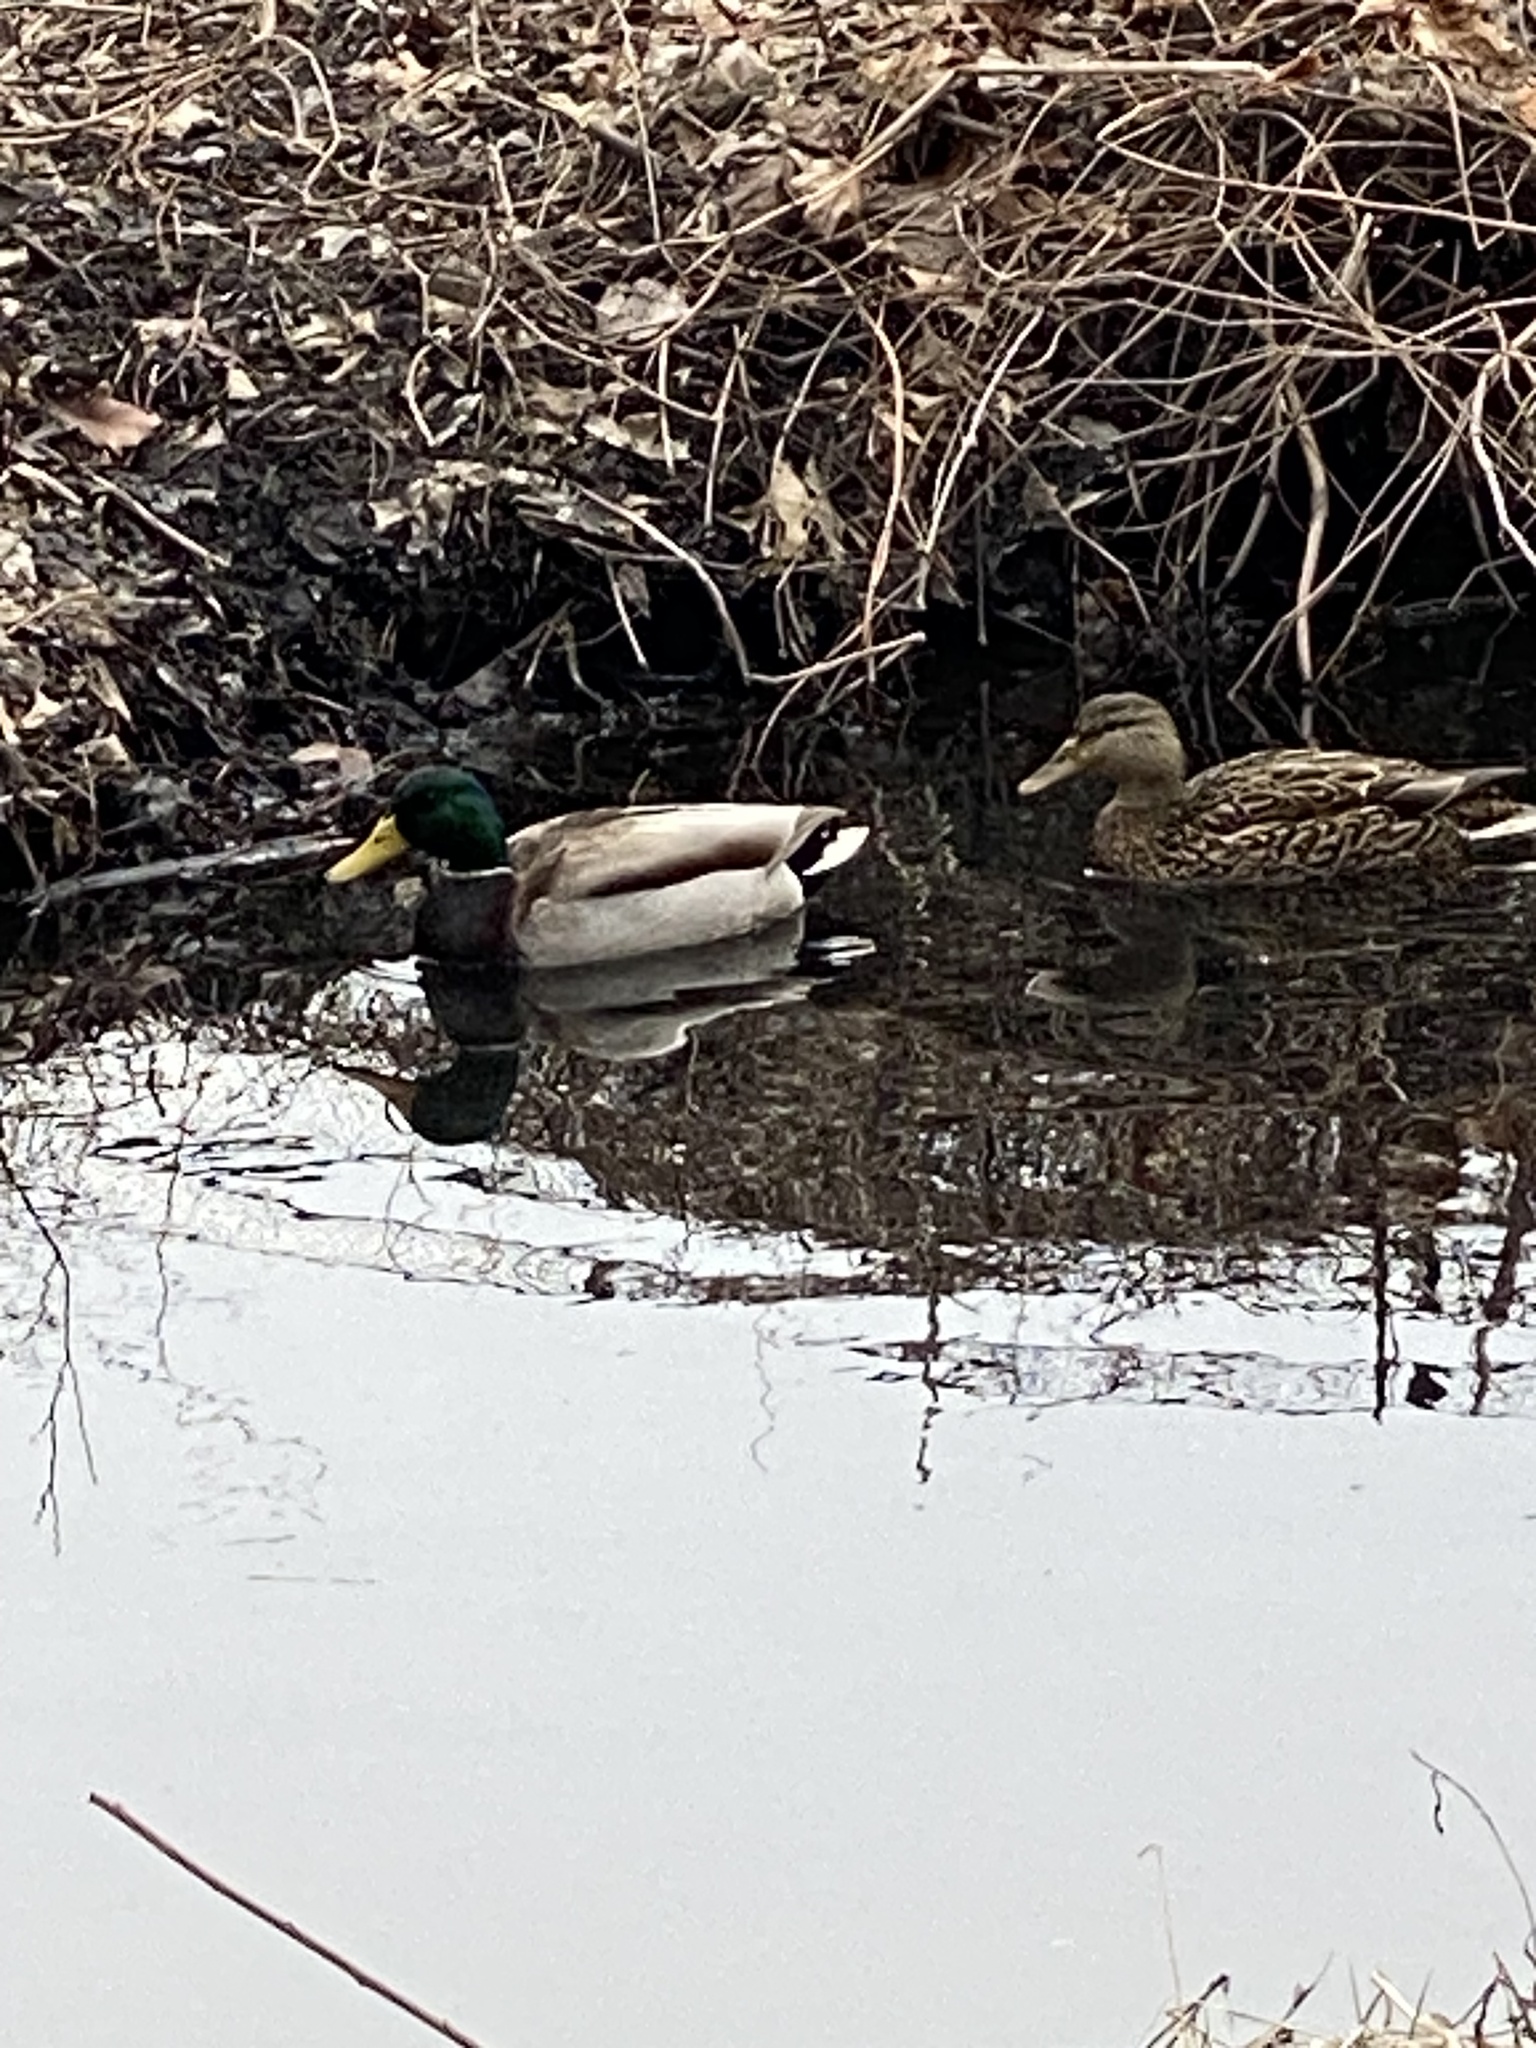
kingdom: Animalia
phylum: Chordata
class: Aves
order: Anseriformes
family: Anatidae
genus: Anas
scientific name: Anas platyrhynchos
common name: Mallard
